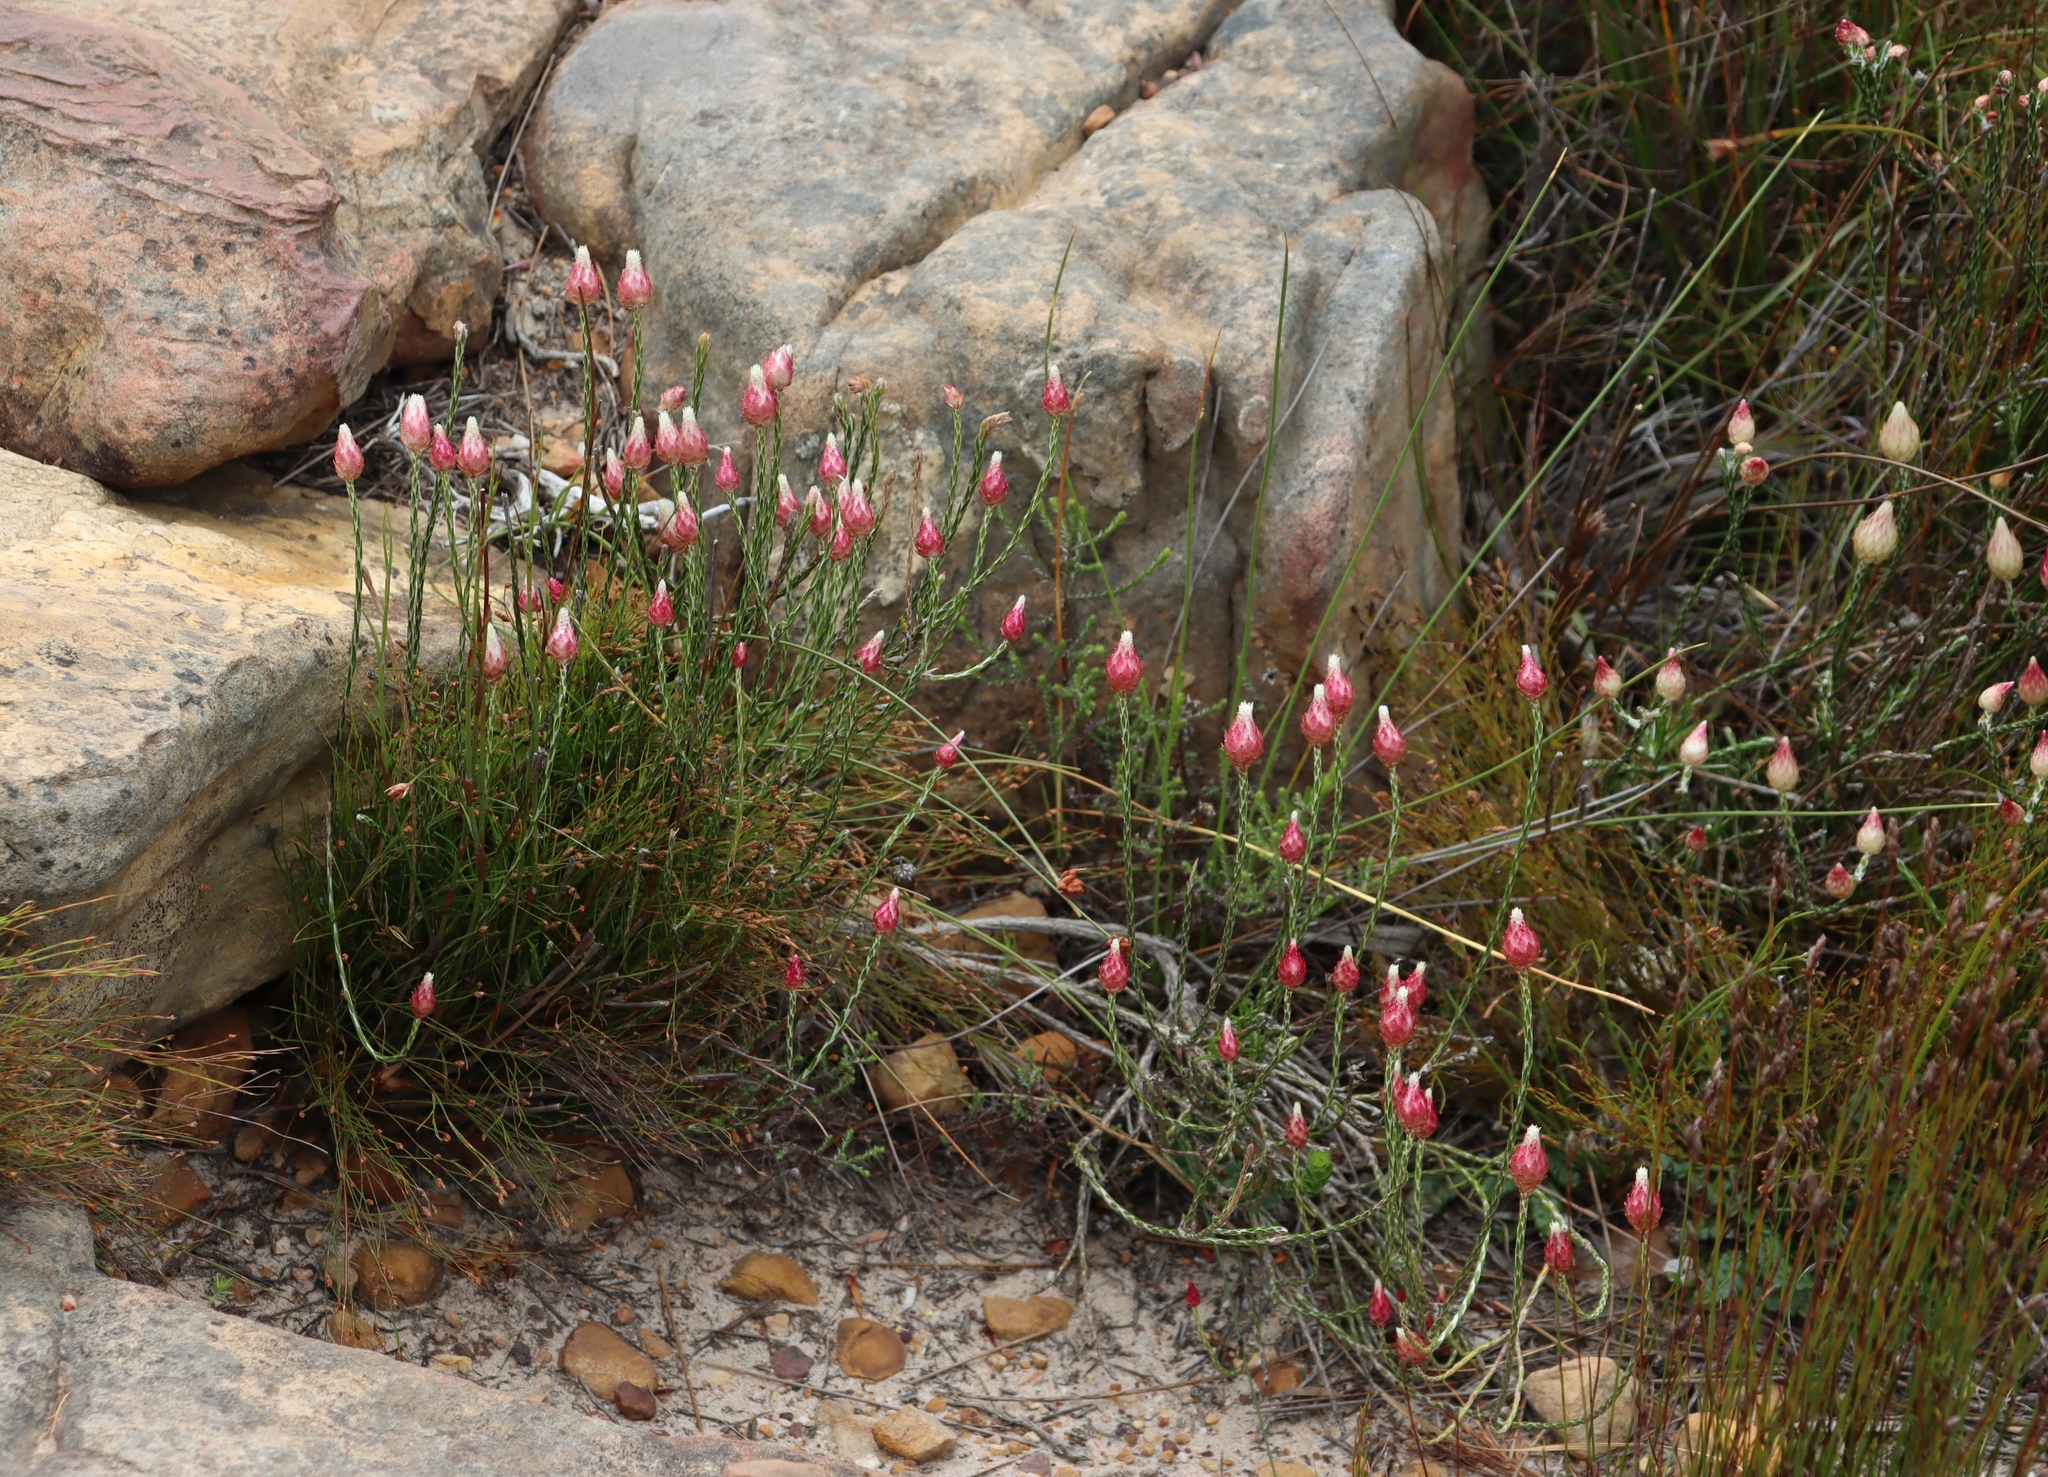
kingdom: Plantae
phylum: Tracheophyta
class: Magnoliopsida
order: Asterales
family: Asteraceae
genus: Edmondia
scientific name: Edmondia sesamoides
